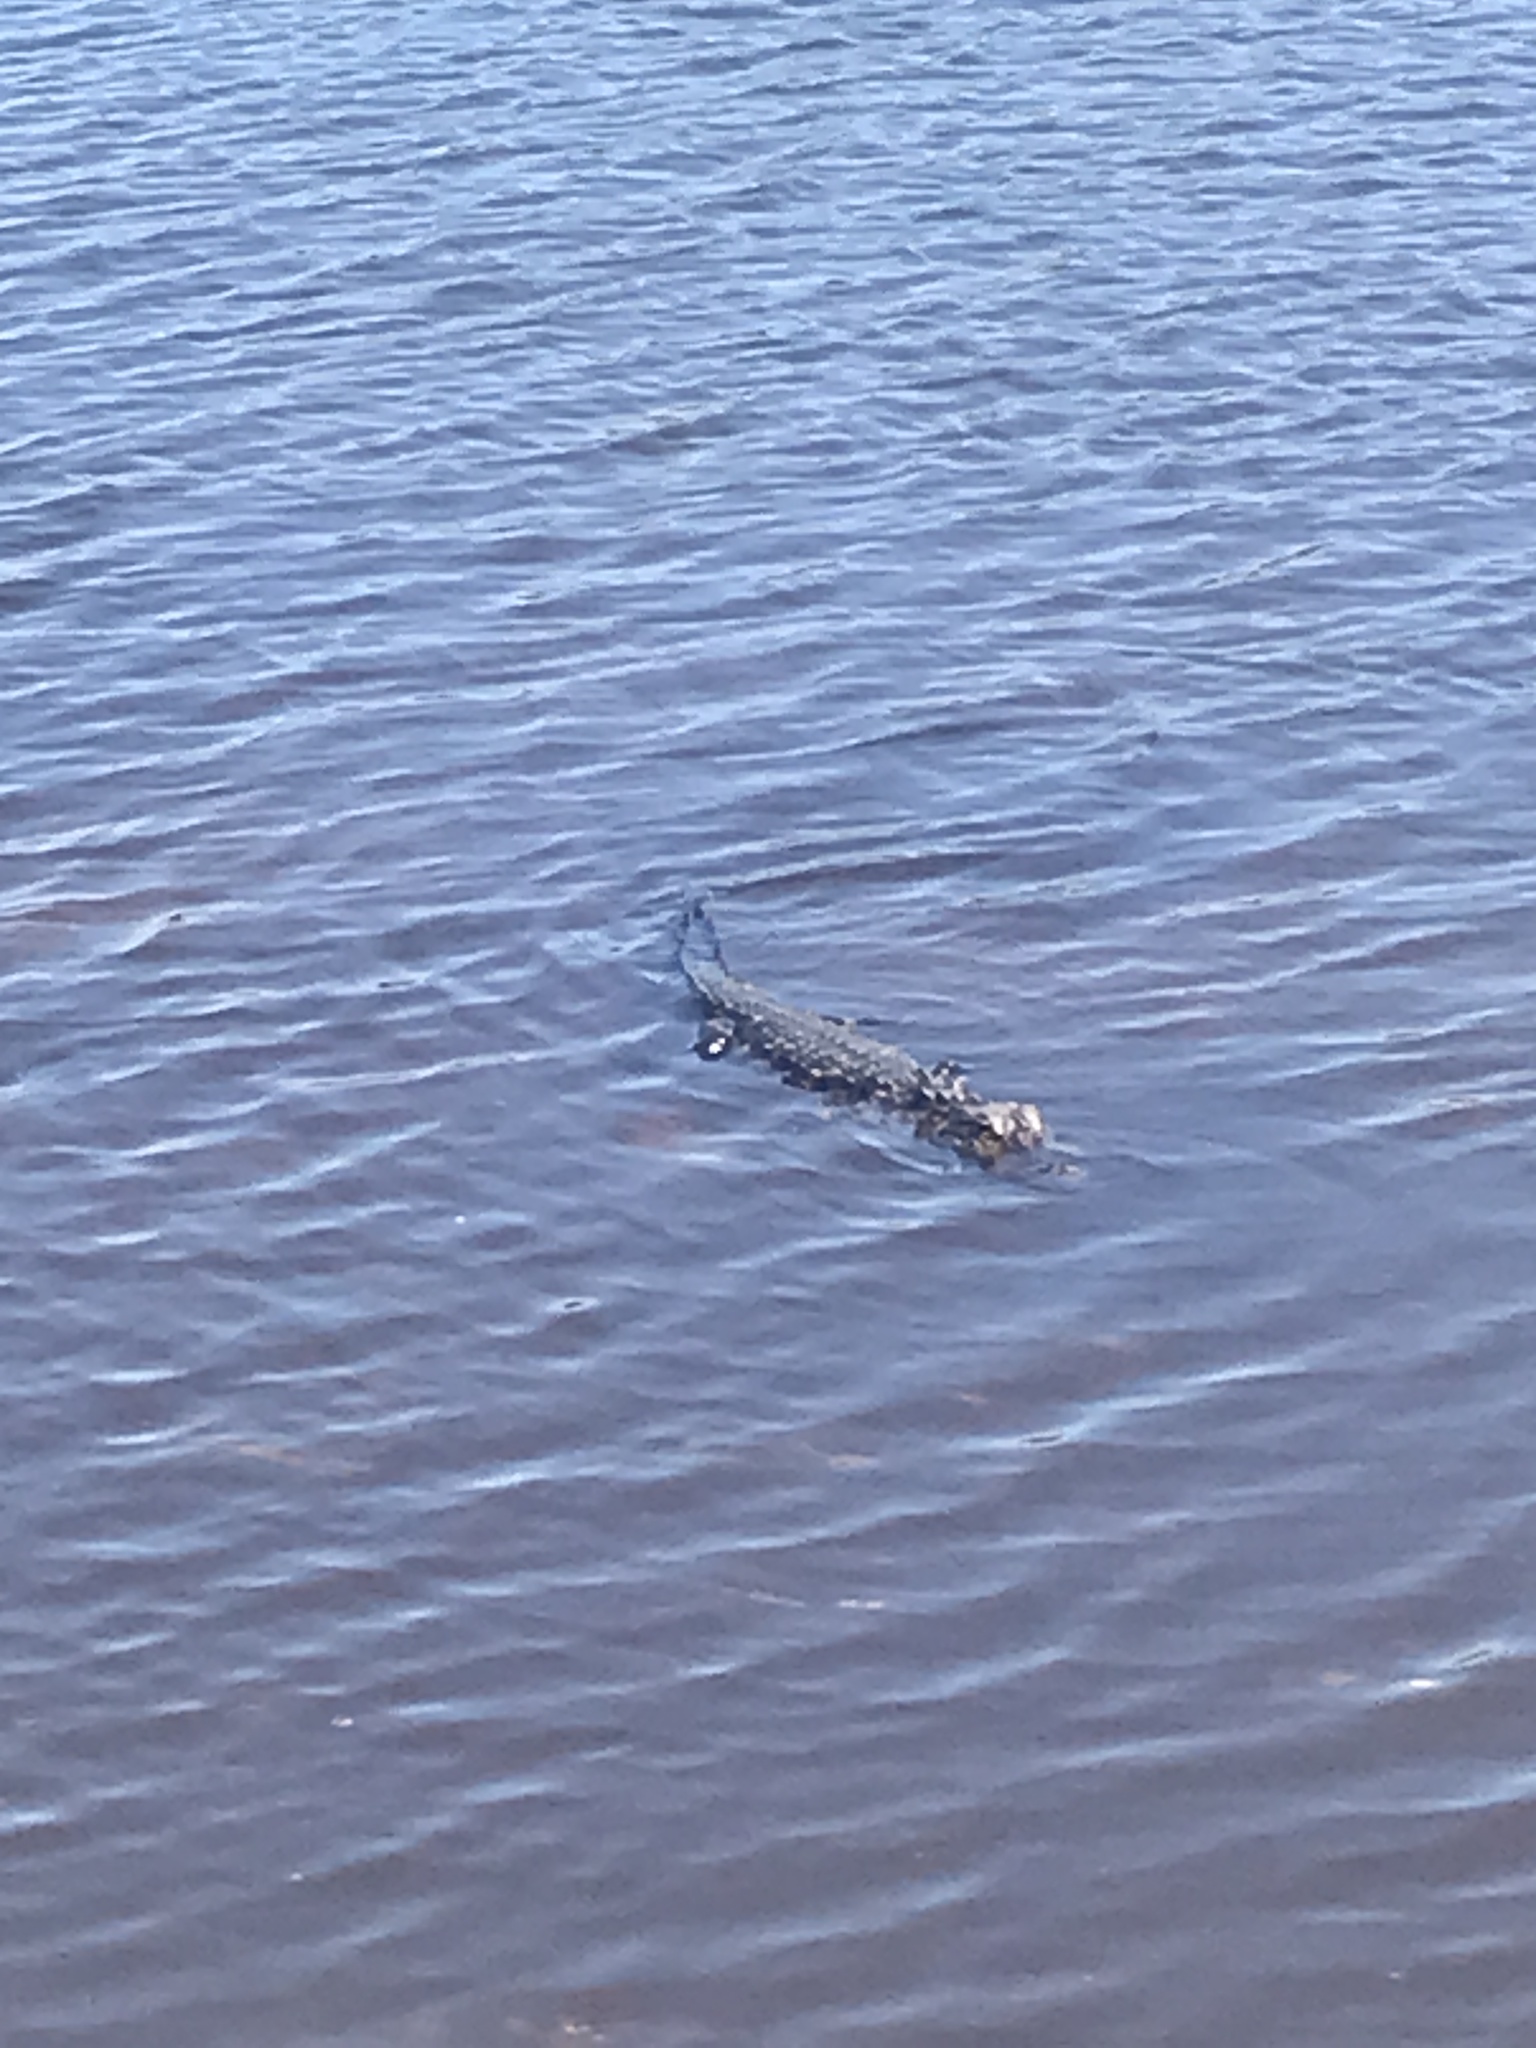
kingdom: Animalia
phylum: Chordata
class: Crocodylia
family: Alligatoridae
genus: Alligator
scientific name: Alligator mississippiensis
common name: American alligator
